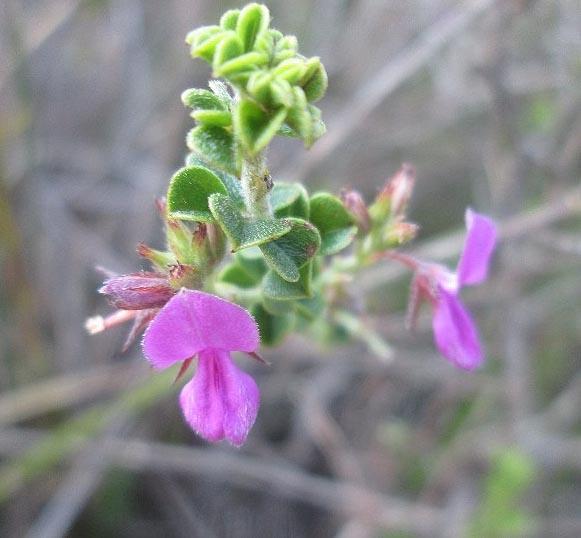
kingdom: Plantae
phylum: Tracheophyta
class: Magnoliopsida
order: Fabales
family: Fabaceae
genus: Indigofera
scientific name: Indigofera candolleana
